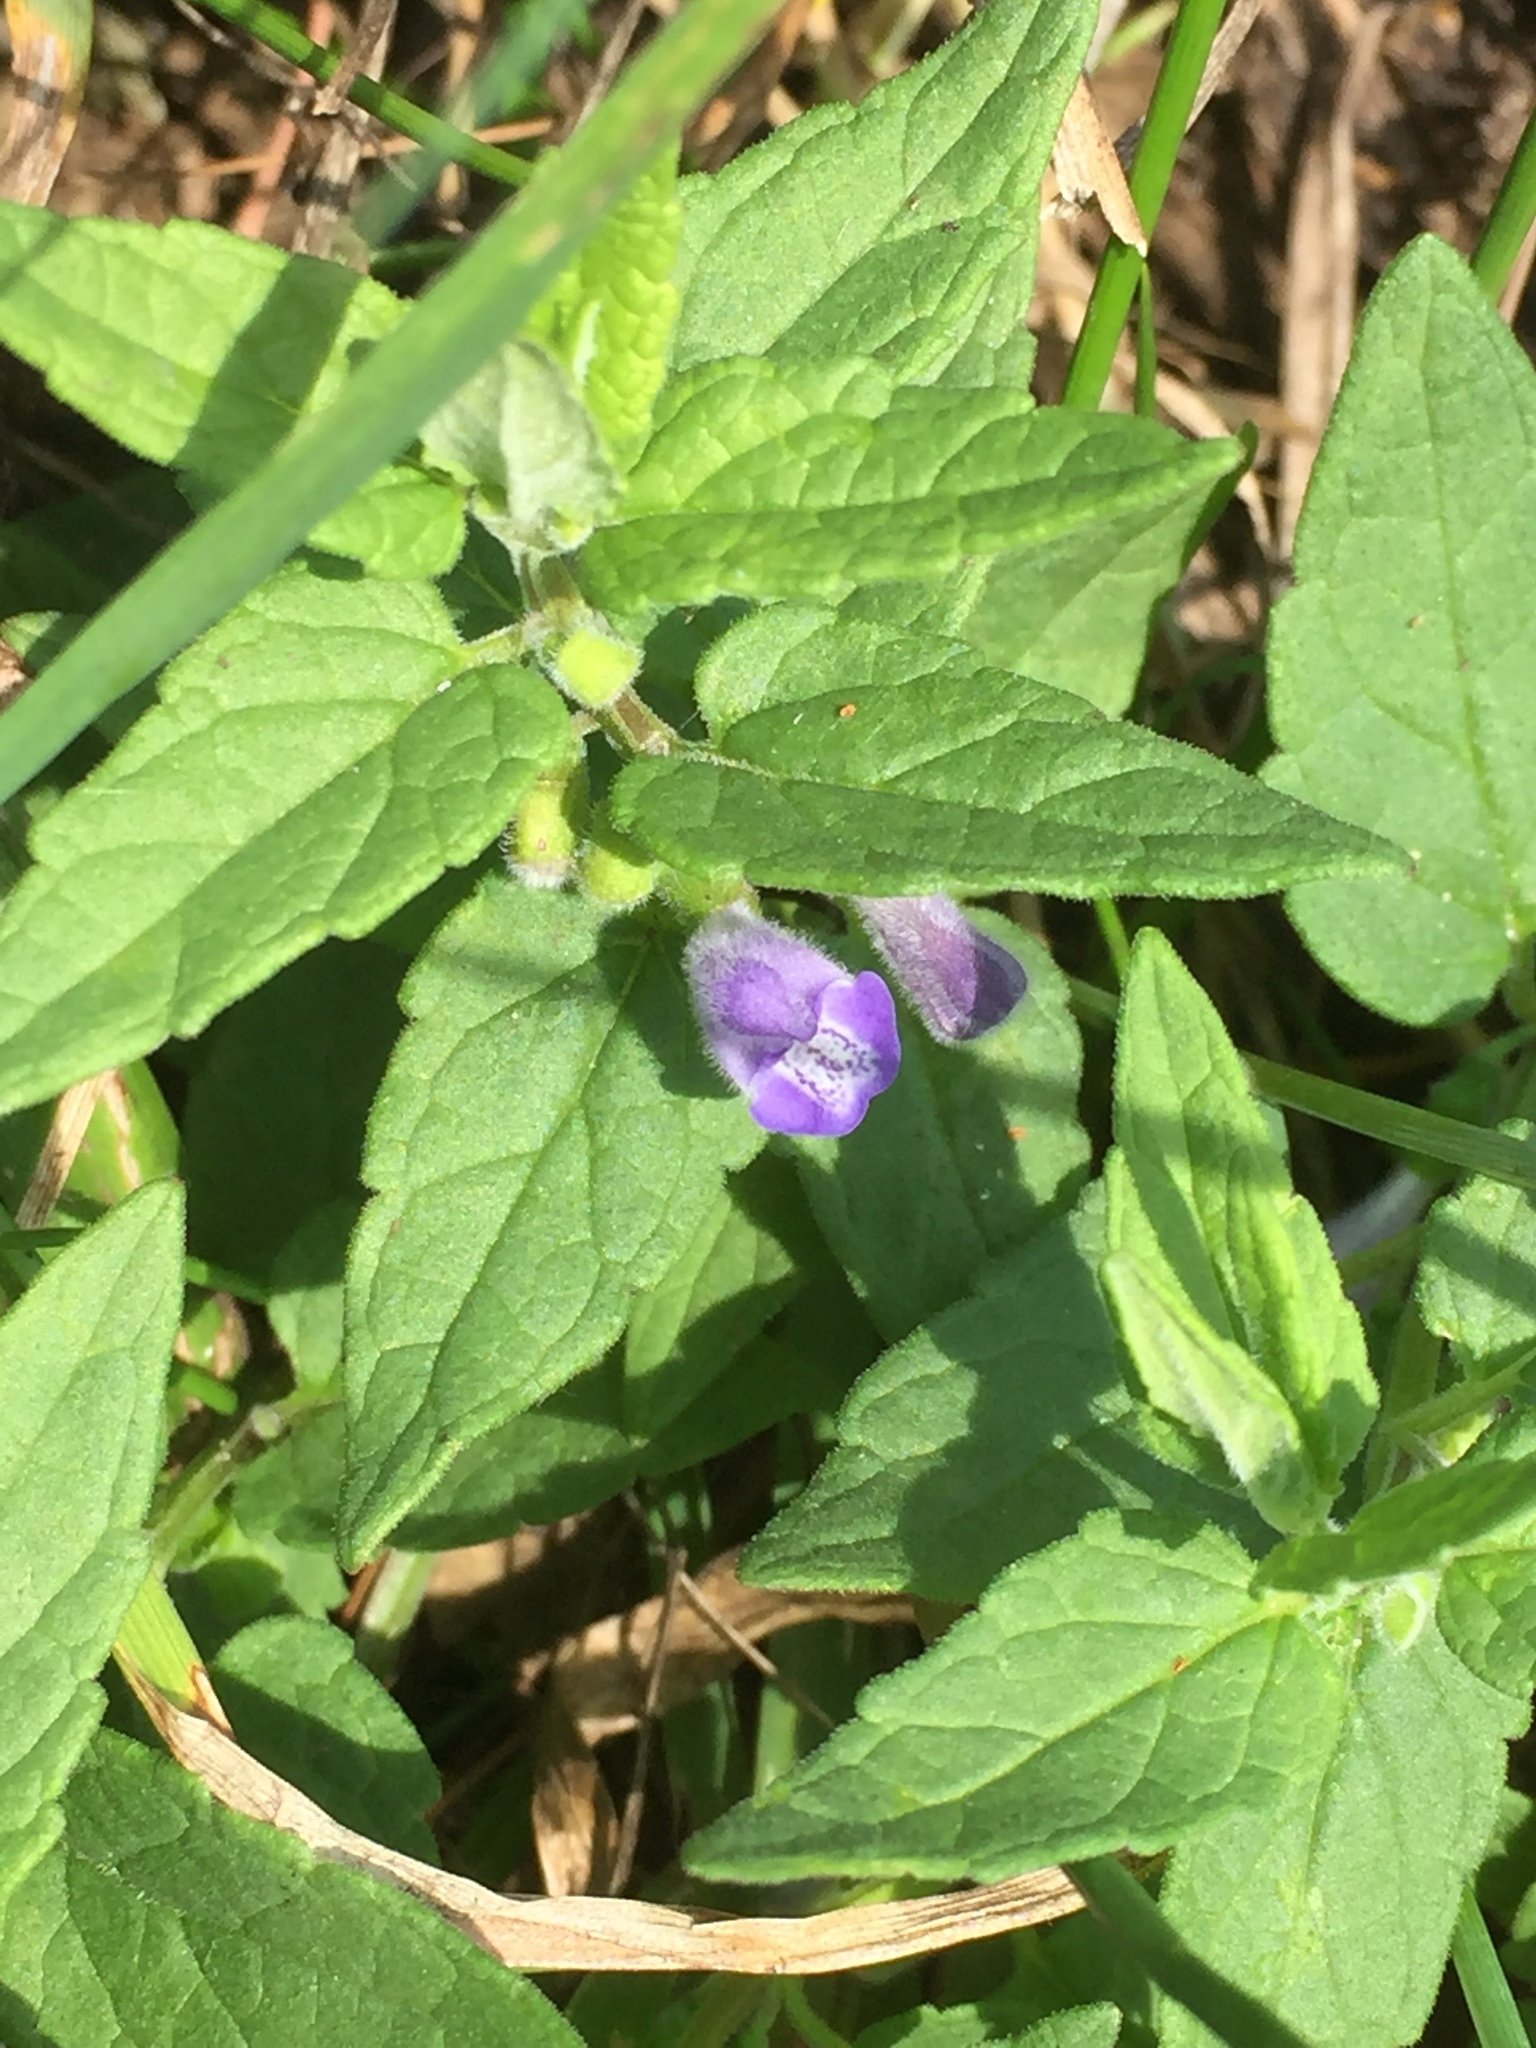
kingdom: Plantae
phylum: Tracheophyta
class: Magnoliopsida
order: Lamiales
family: Lamiaceae
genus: Scutellaria
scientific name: Scutellaria galericulata
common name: Skullcap
